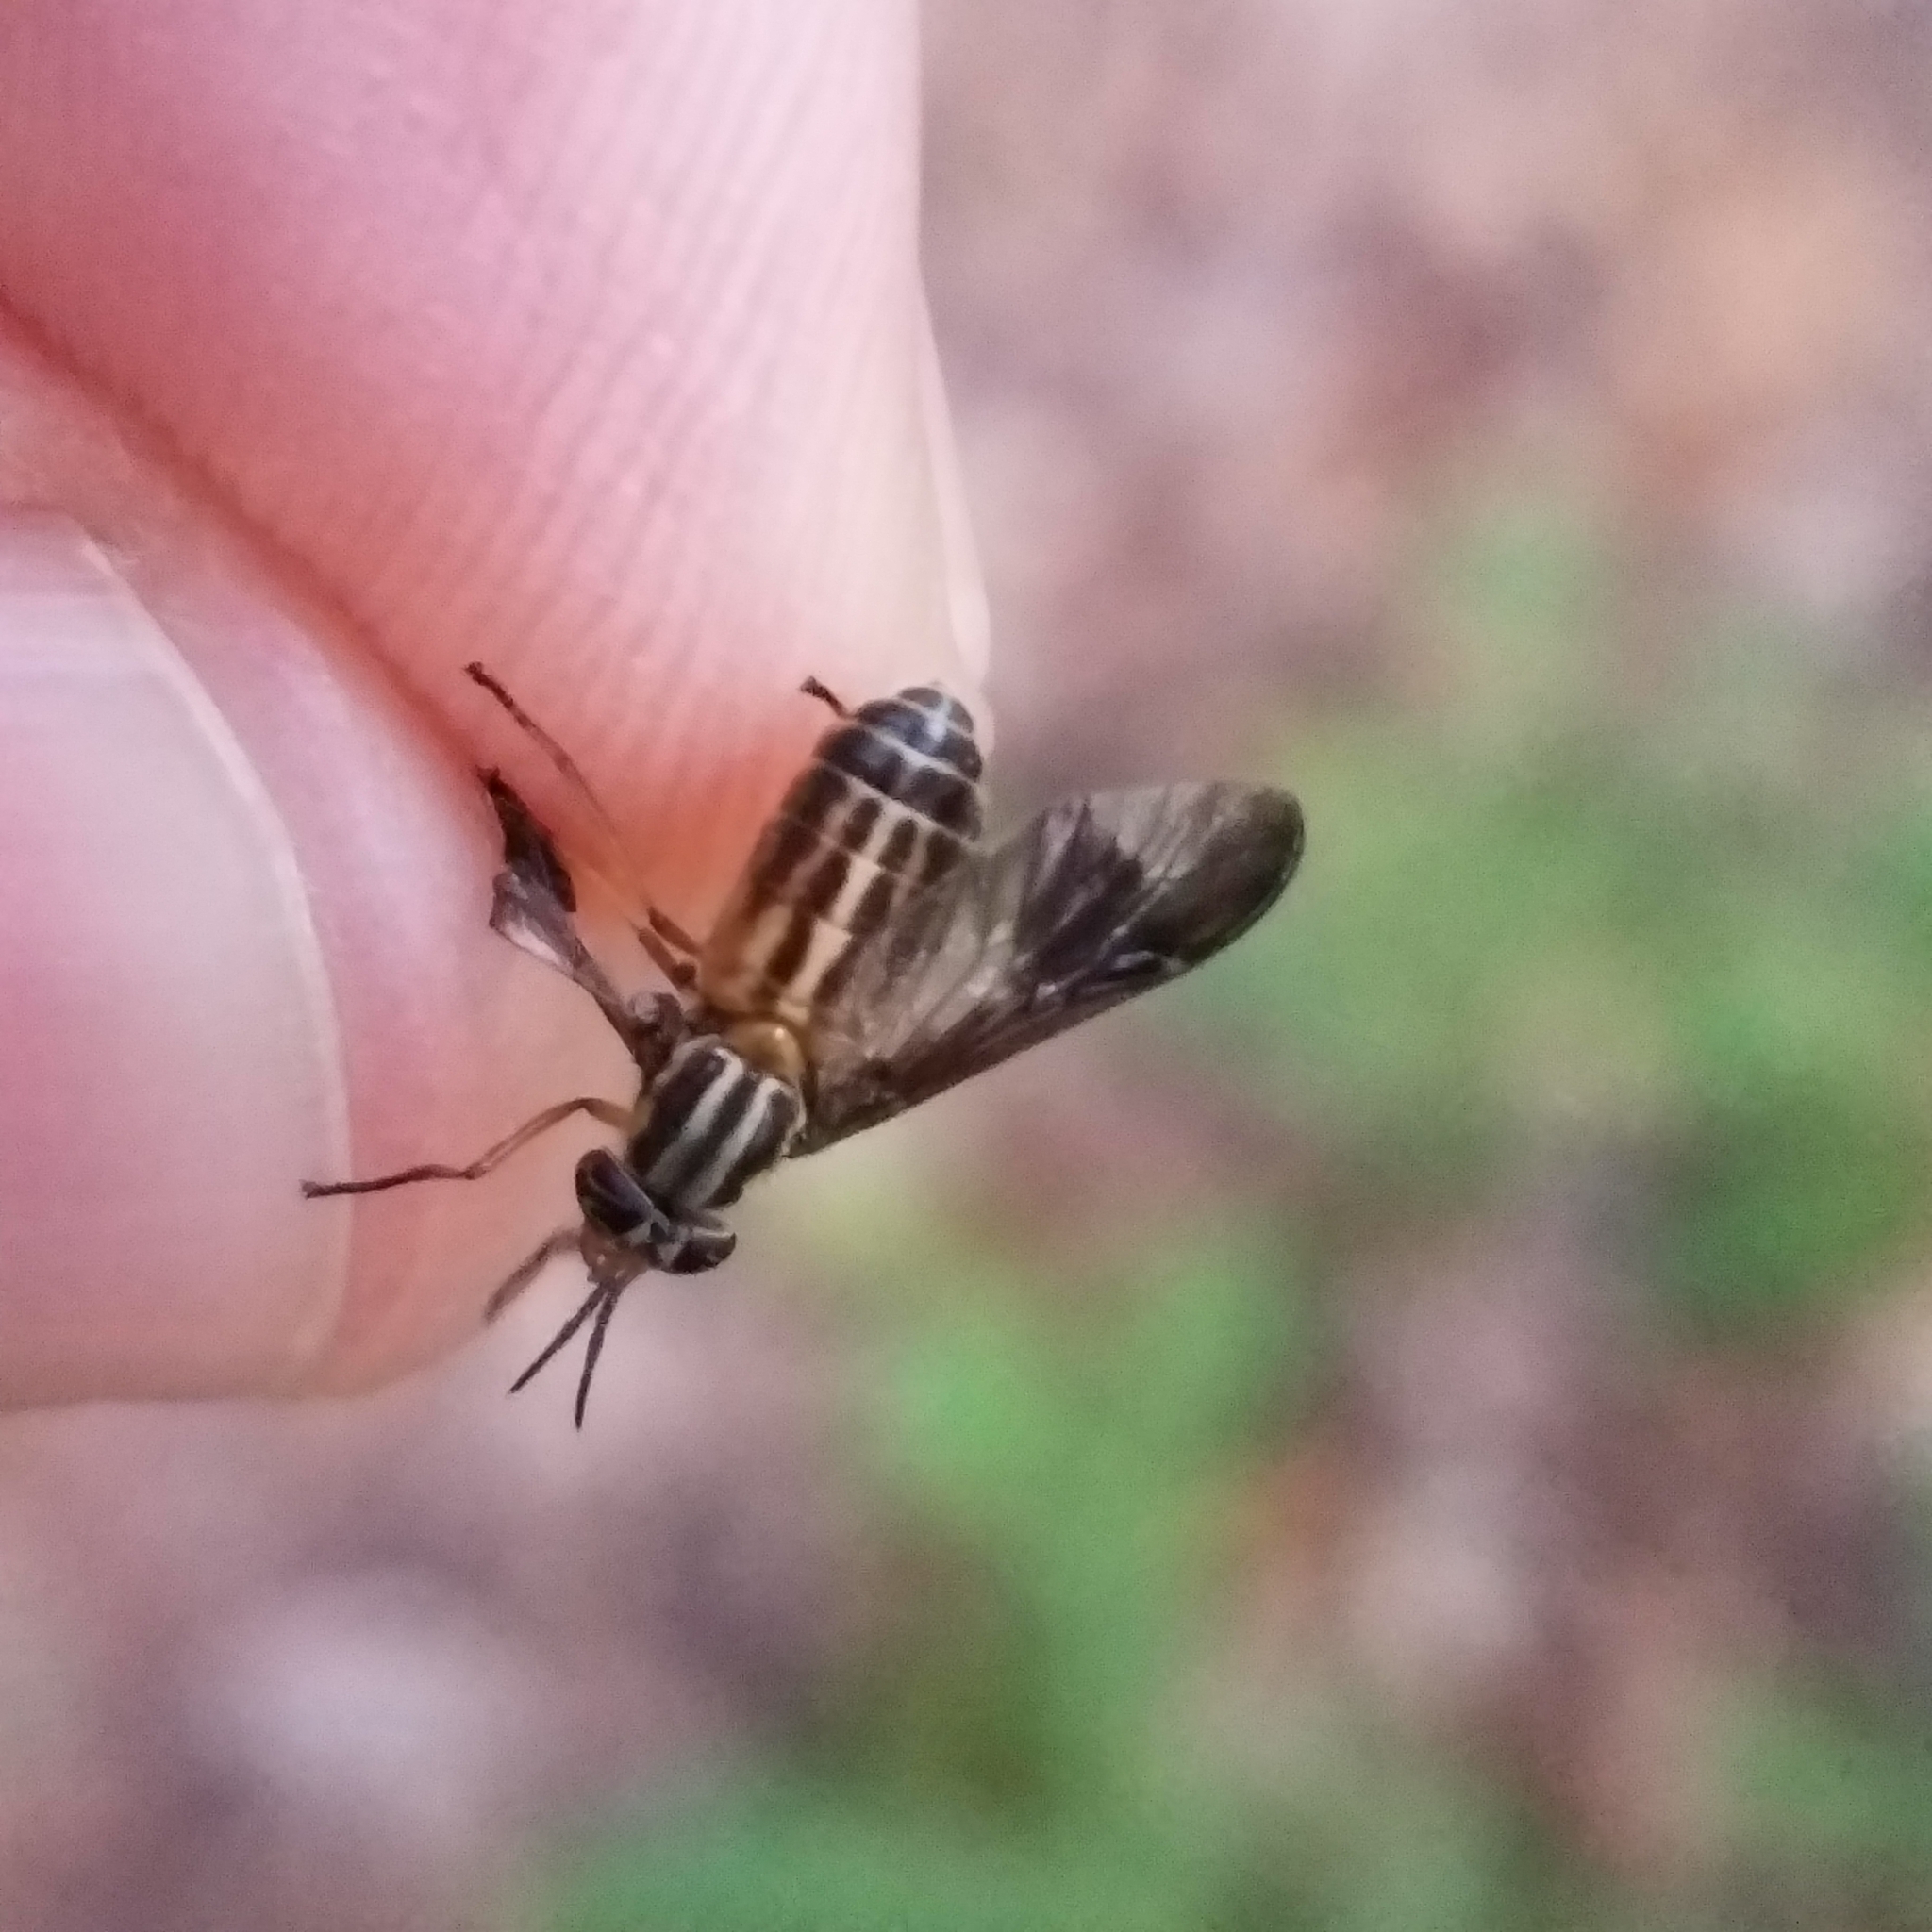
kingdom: Animalia
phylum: Arthropoda
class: Insecta
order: Diptera
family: Tabanidae
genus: Chrysops
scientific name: Chrysops vittatus
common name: Striped deer fly
